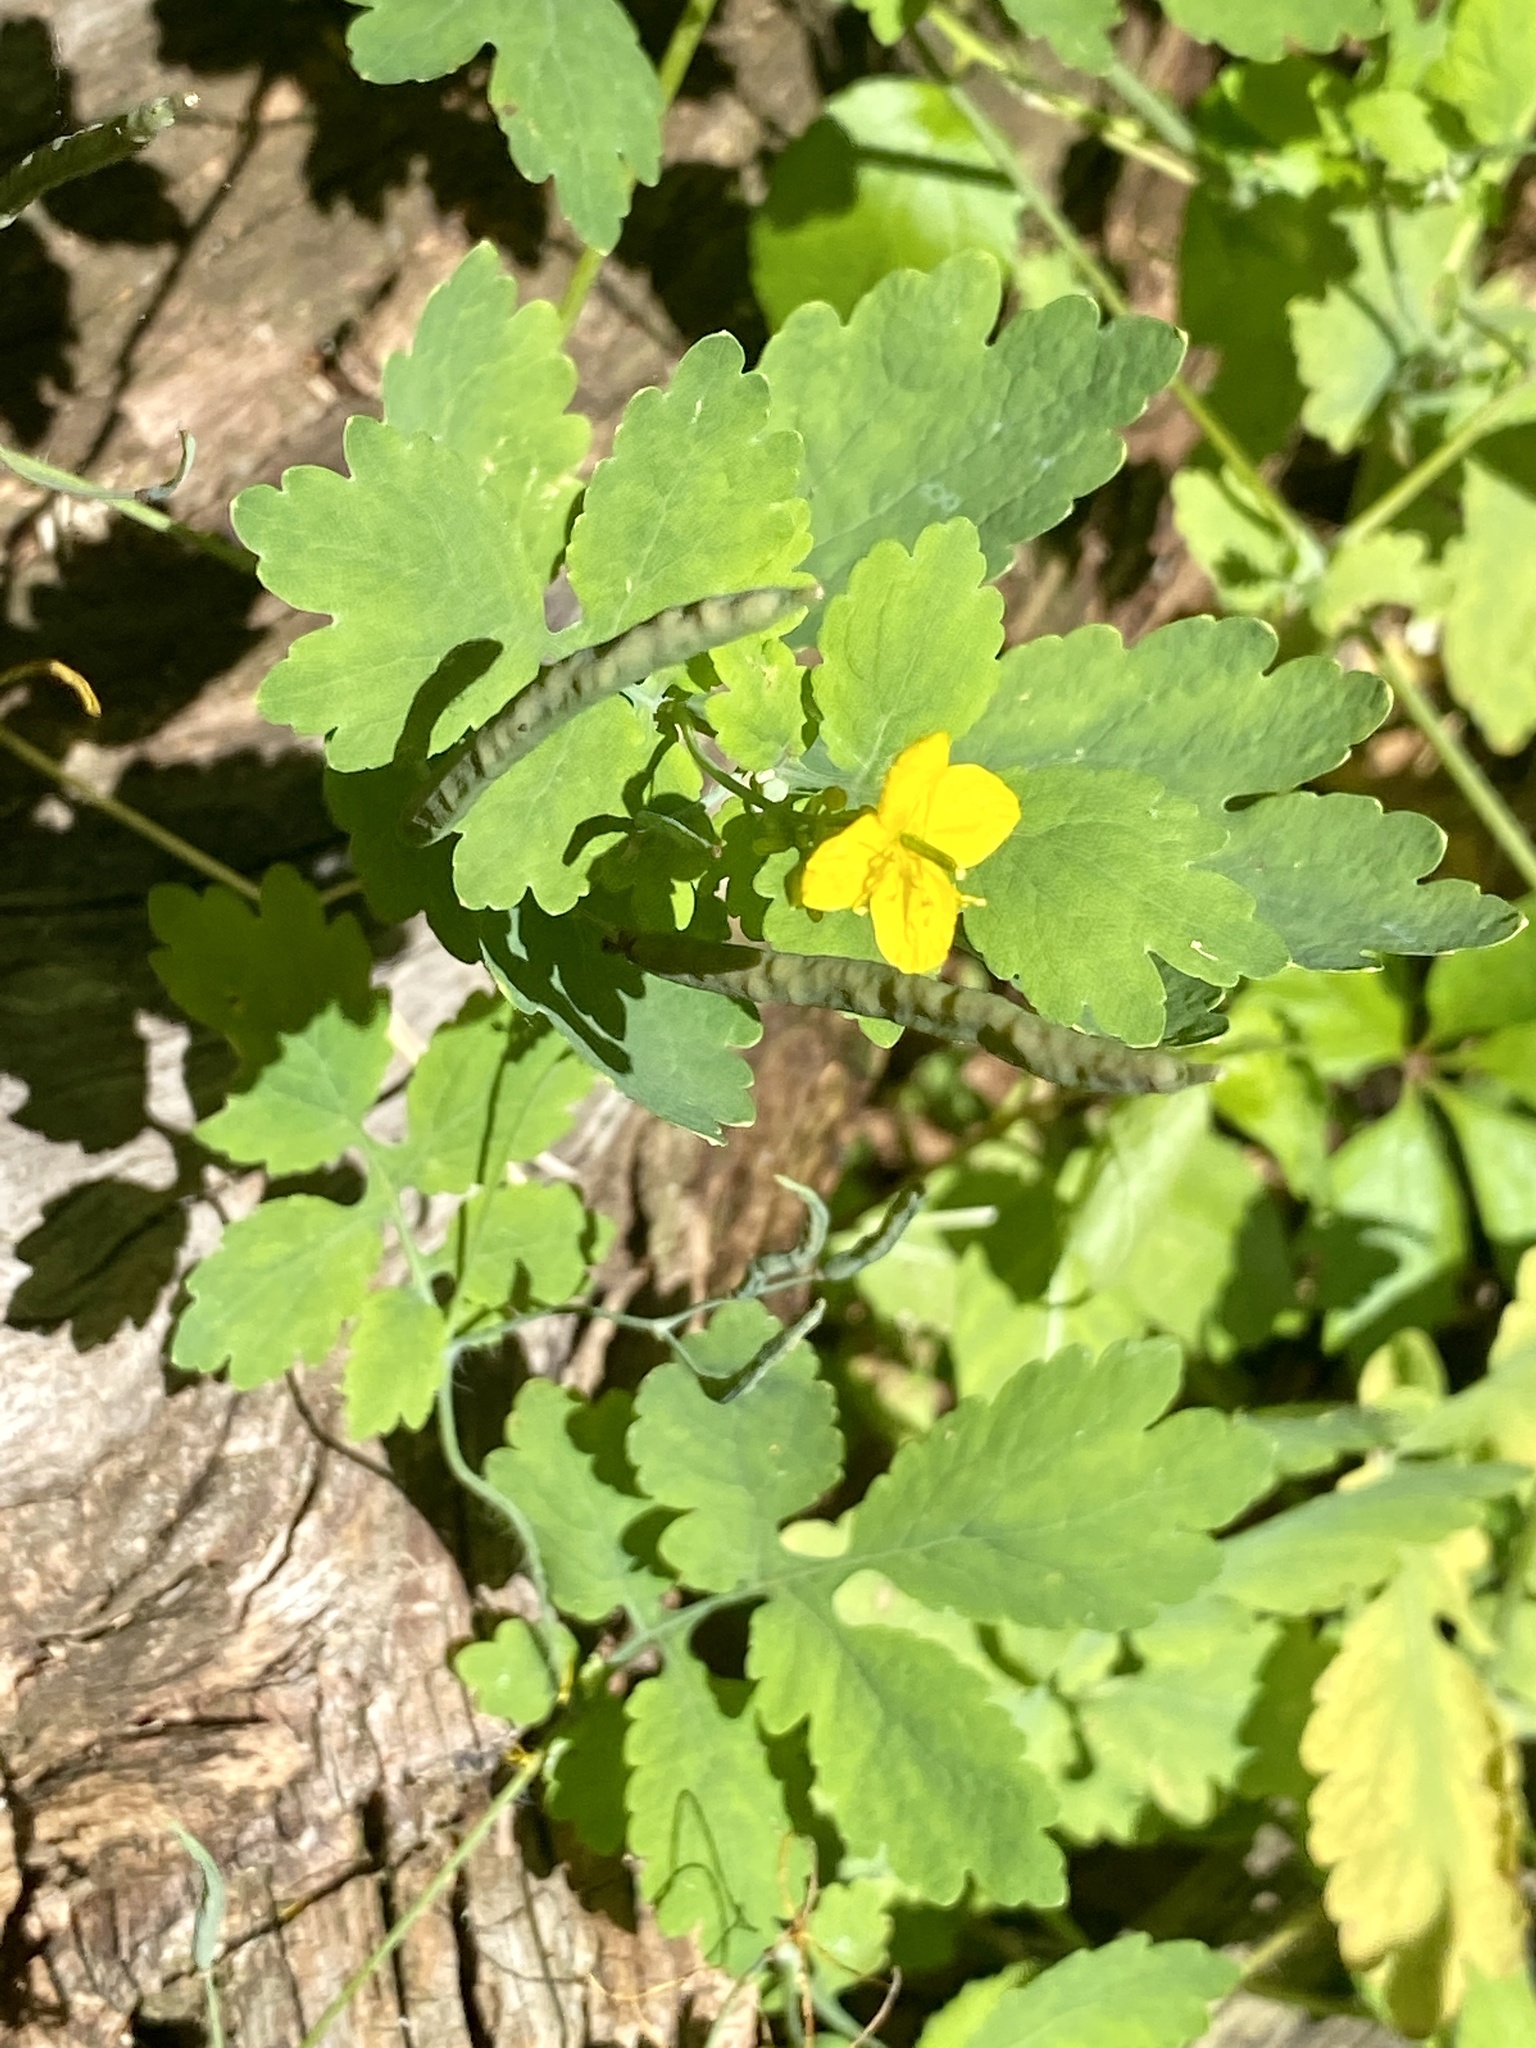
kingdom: Plantae
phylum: Tracheophyta
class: Magnoliopsida
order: Ranunculales
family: Papaveraceae
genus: Chelidonium
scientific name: Chelidonium majus
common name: Greater celandine
